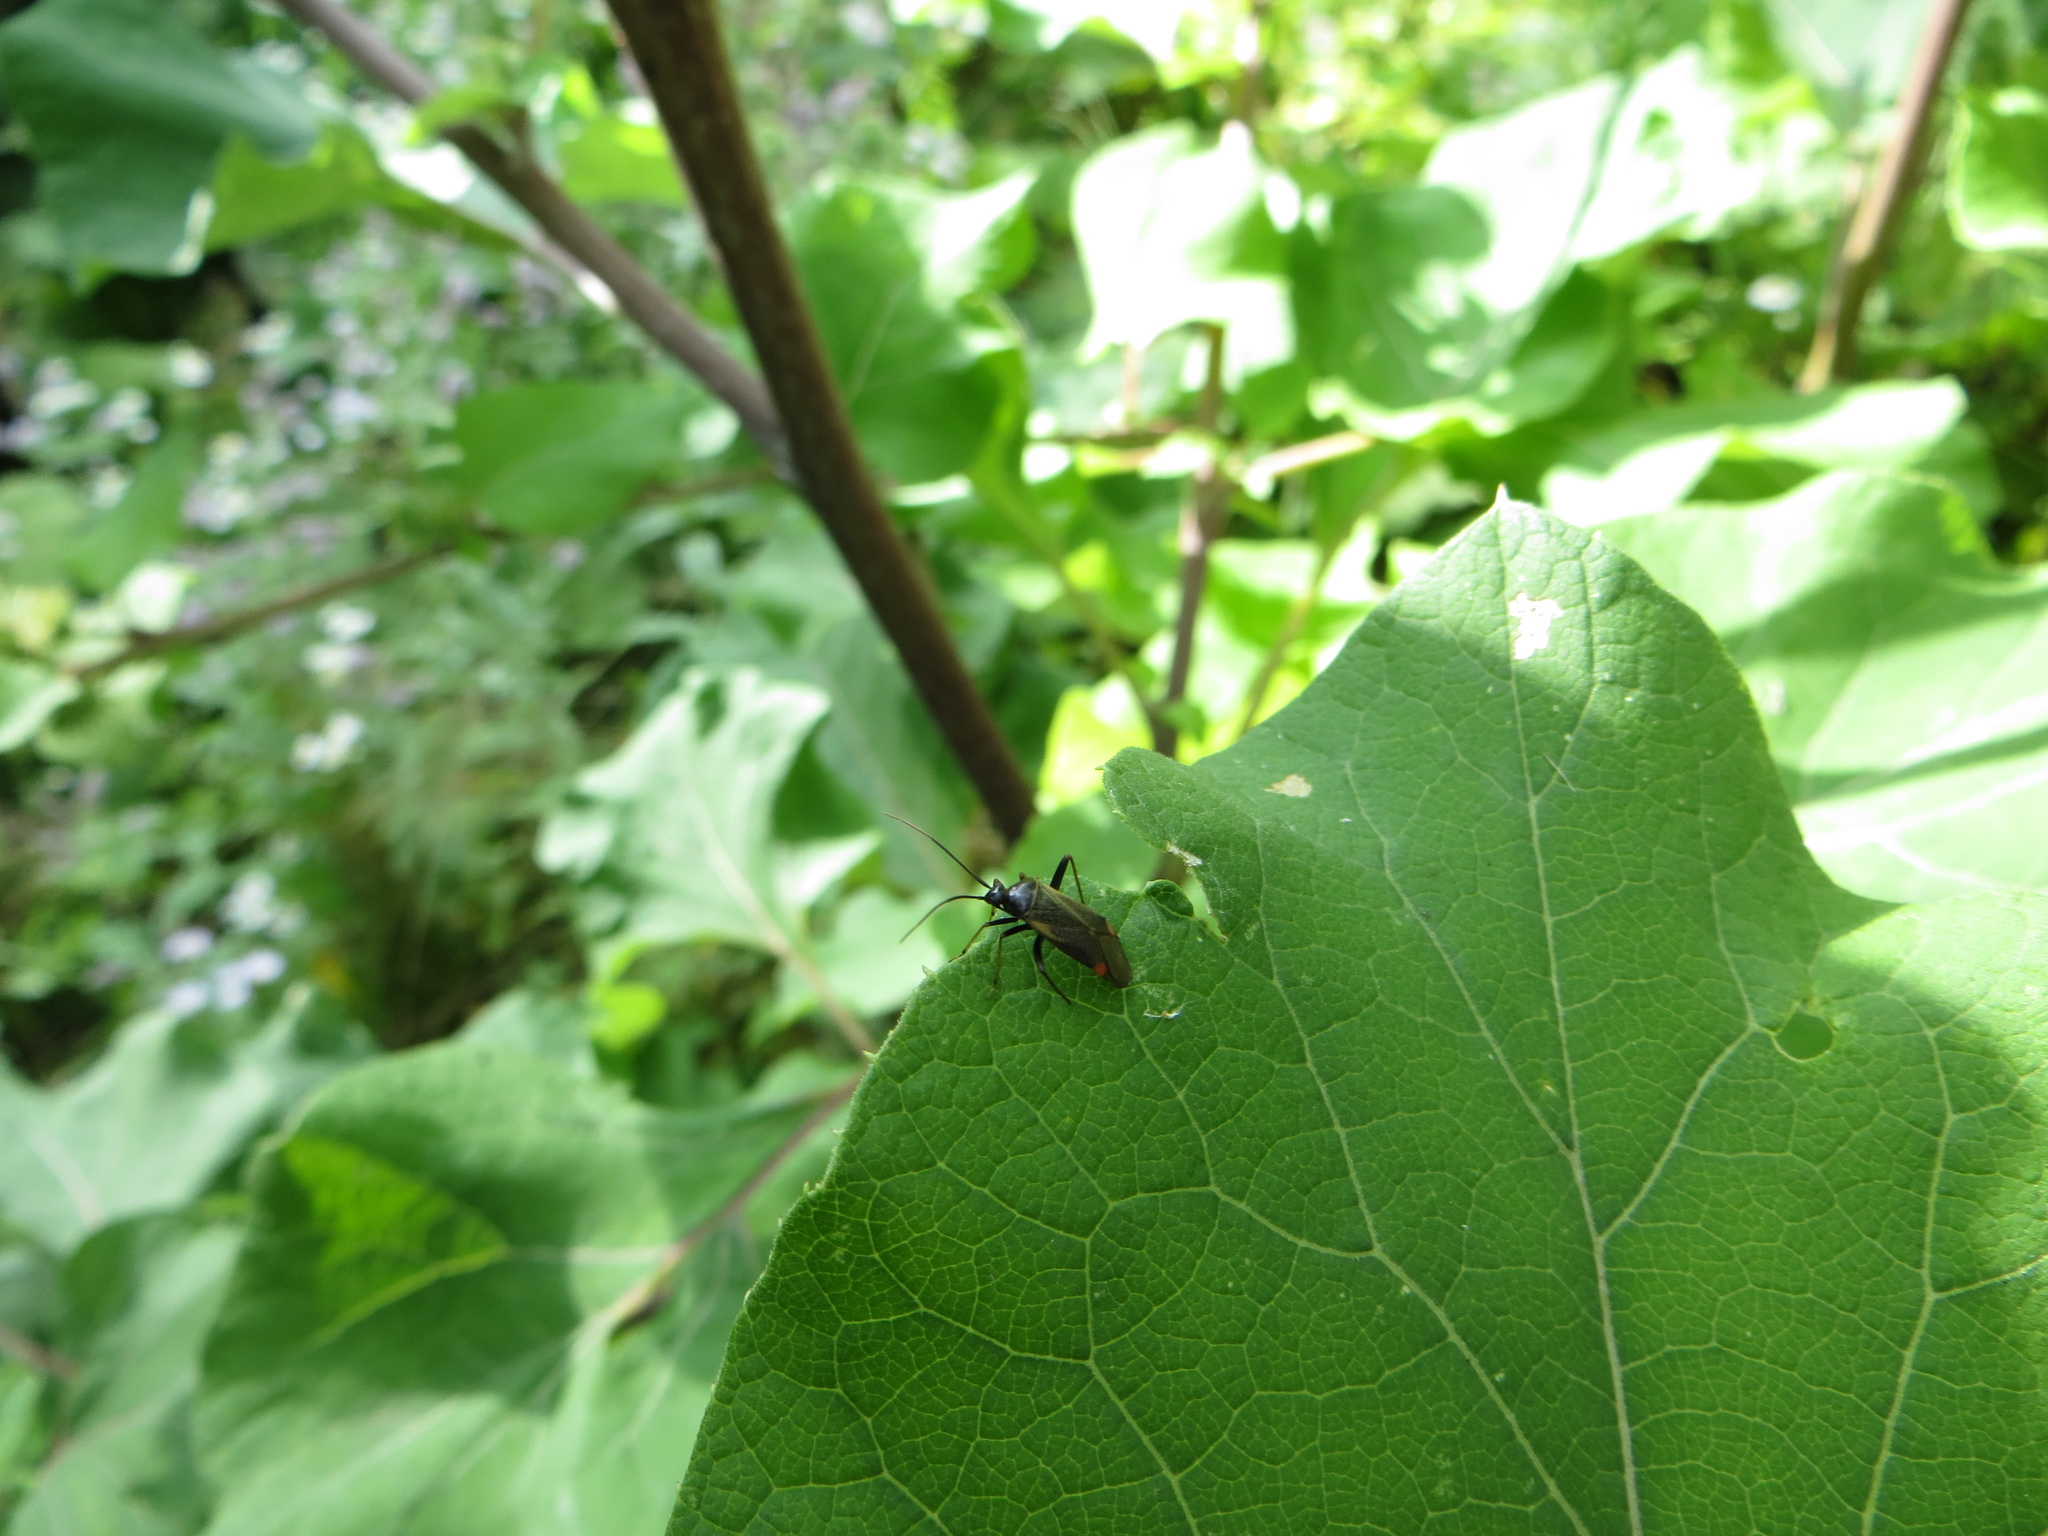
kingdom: Animalia
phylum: Arthropoda
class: Insecta
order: Hemiptera
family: Miridae
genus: Adelphocoris
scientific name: Adelphocoris seticornis
